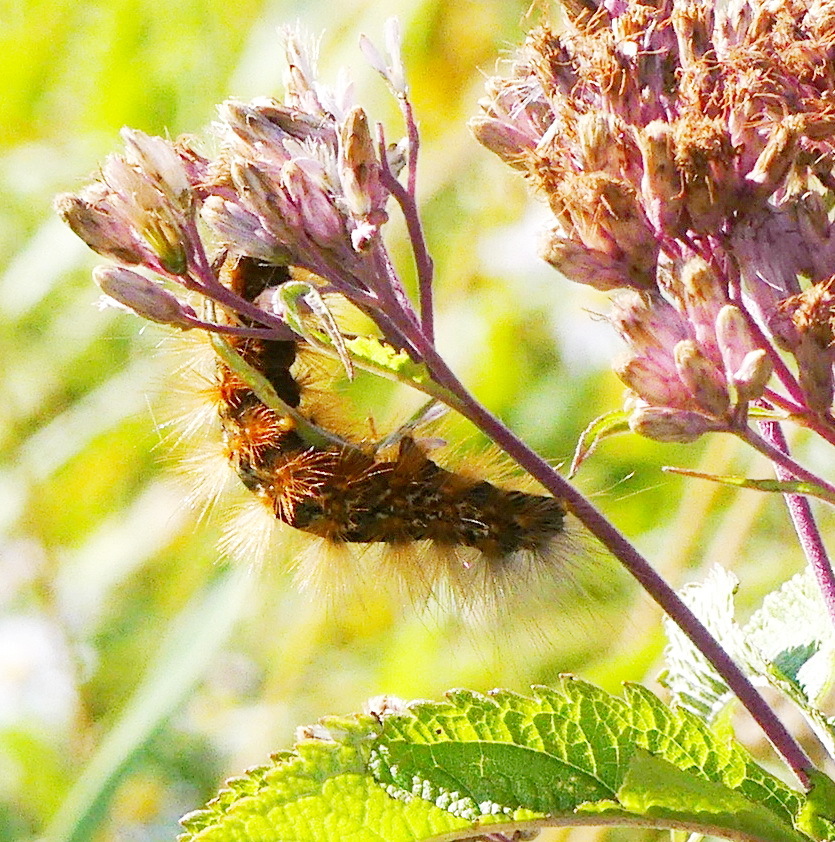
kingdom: Animalia
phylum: Arthropoda
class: Insecta
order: Lepidoptera
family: Erebidae
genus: Estigmene
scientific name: Estigmene acrea
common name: Salt marsh moth
